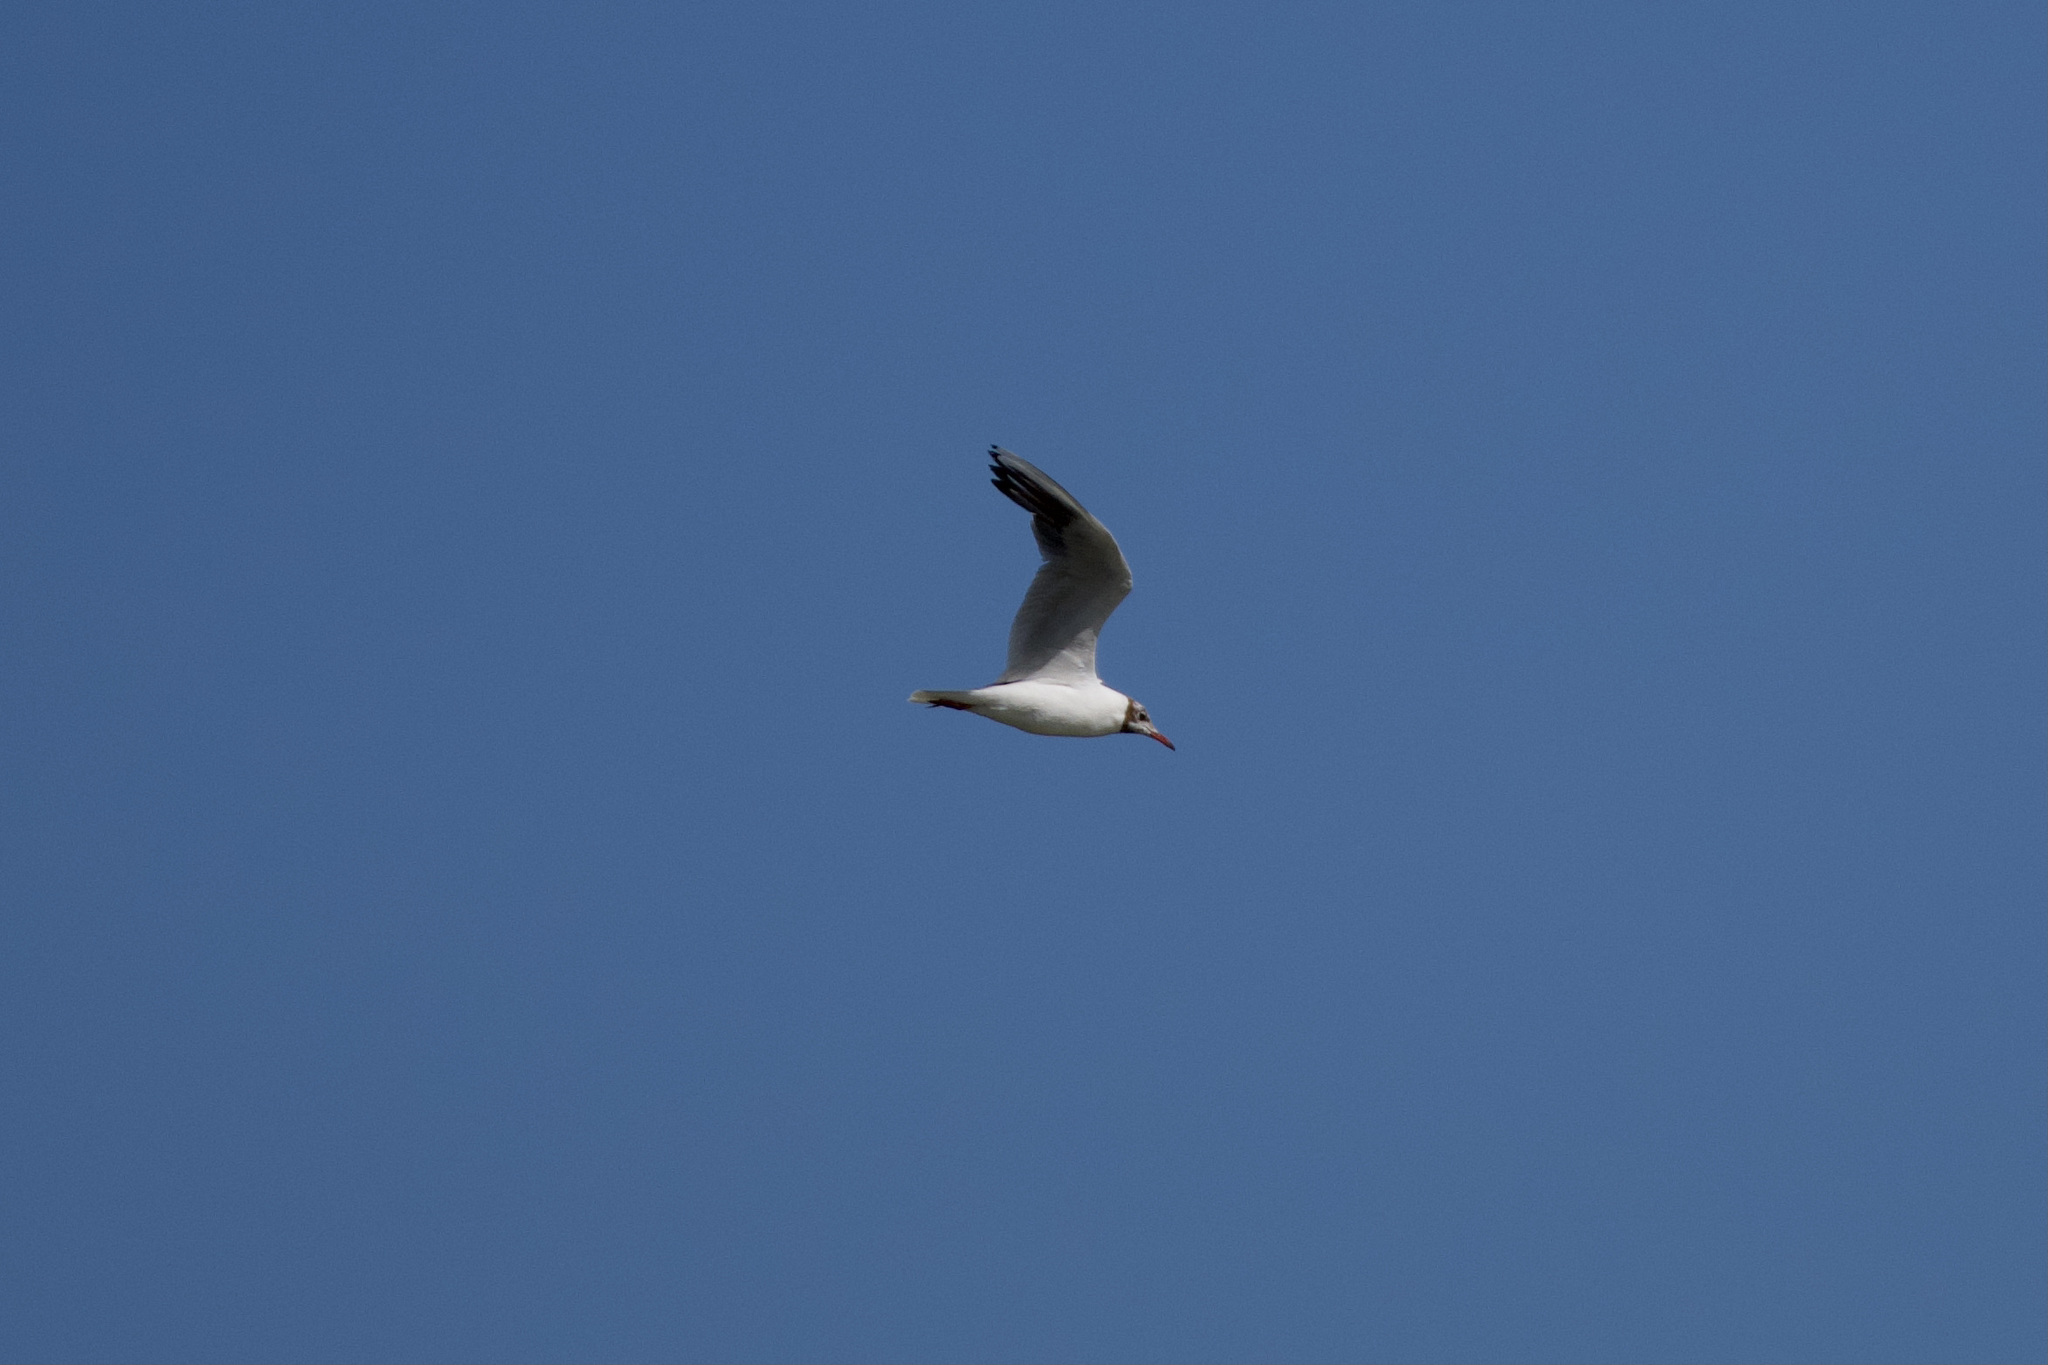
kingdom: Animalia
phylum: Chordata
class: Aves
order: Charadriiformes
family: Laridae
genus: Chroicocephalus
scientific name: Chroicocephalus ridibundus
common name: Black-headed gull
